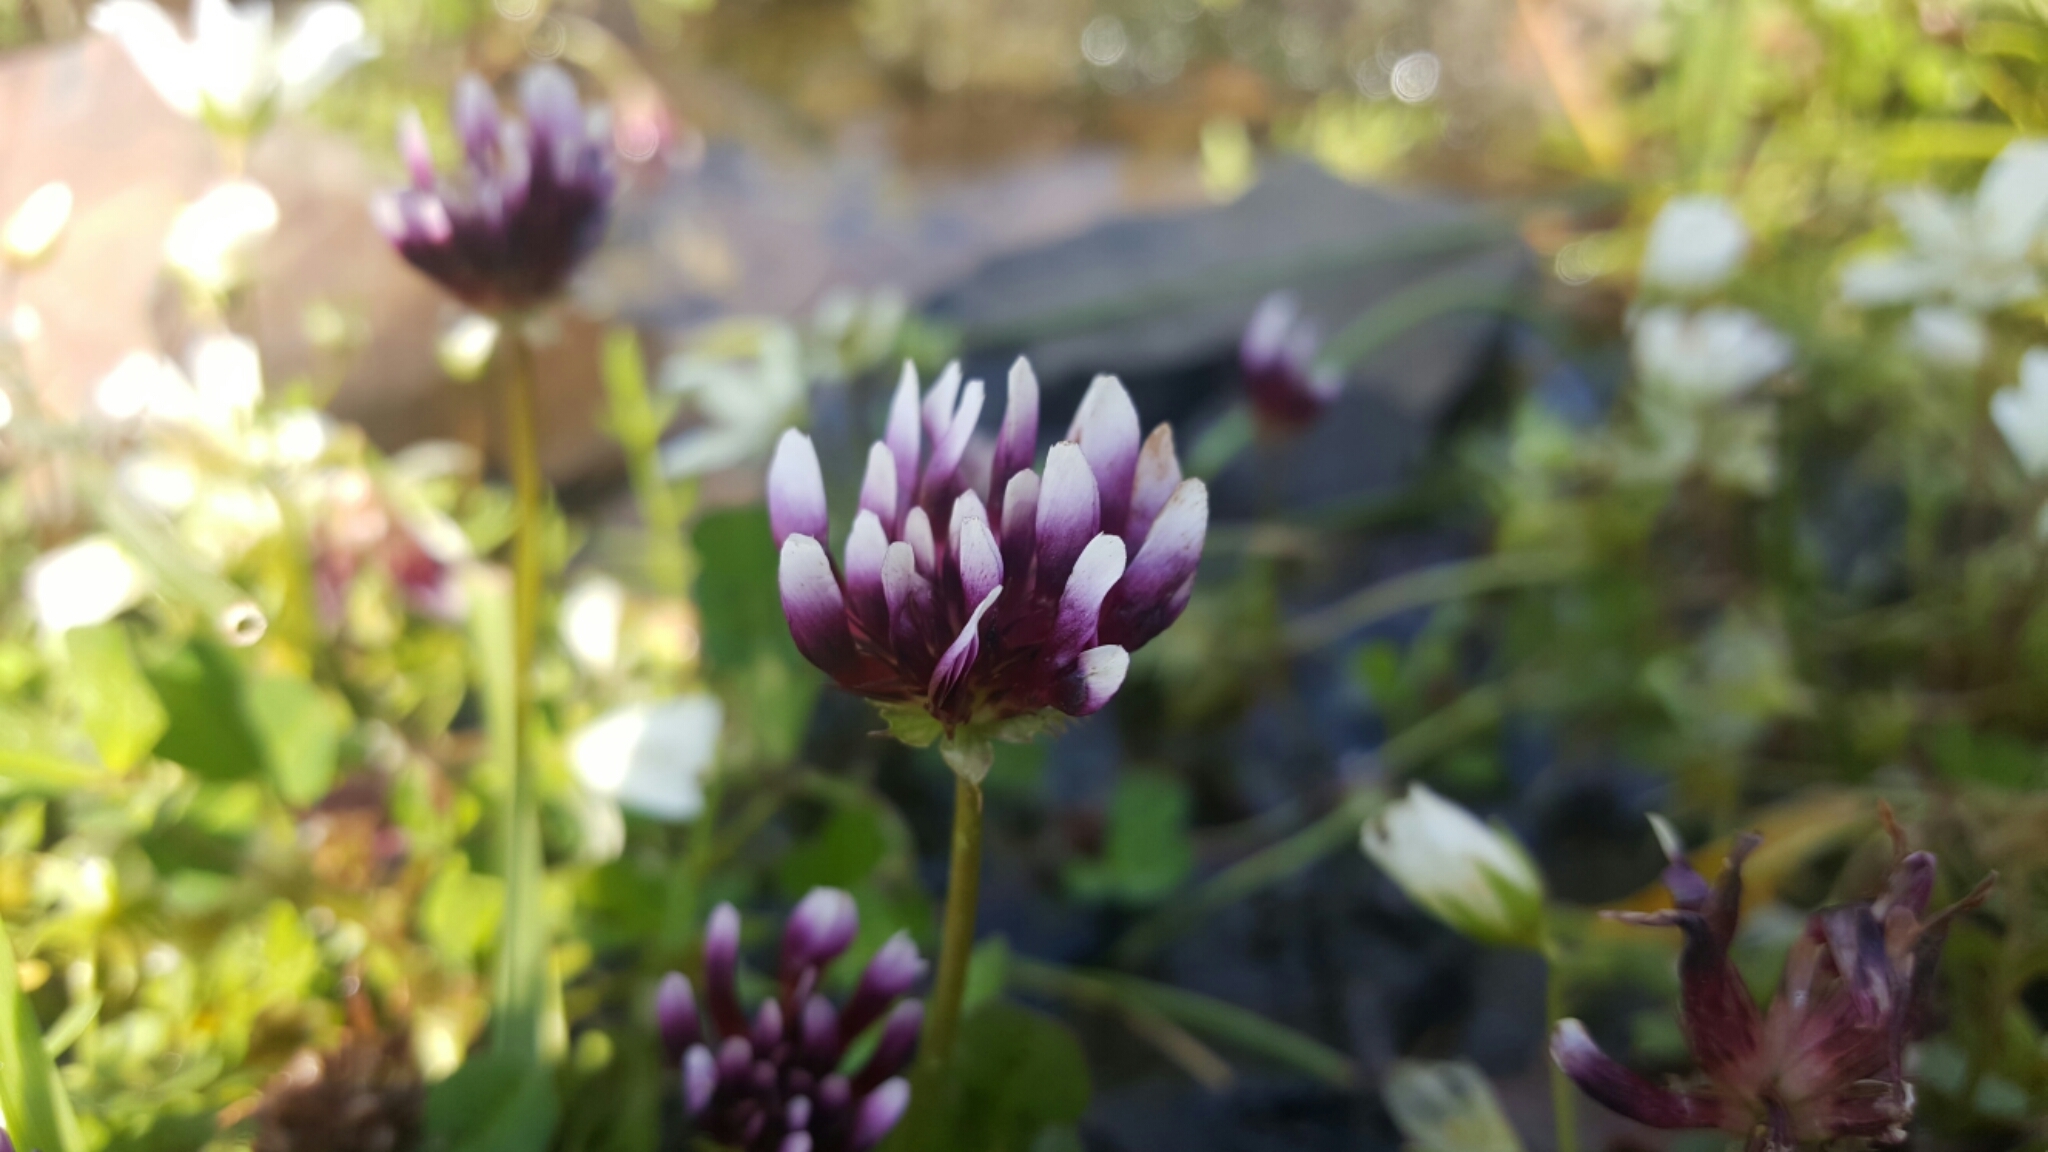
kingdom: Plantae
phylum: Tracheophyta
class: Magnoliopsida
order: Fabales
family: Fabaceae
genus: Trifolium
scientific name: Trifolium variegatum
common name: Whitetip clover
